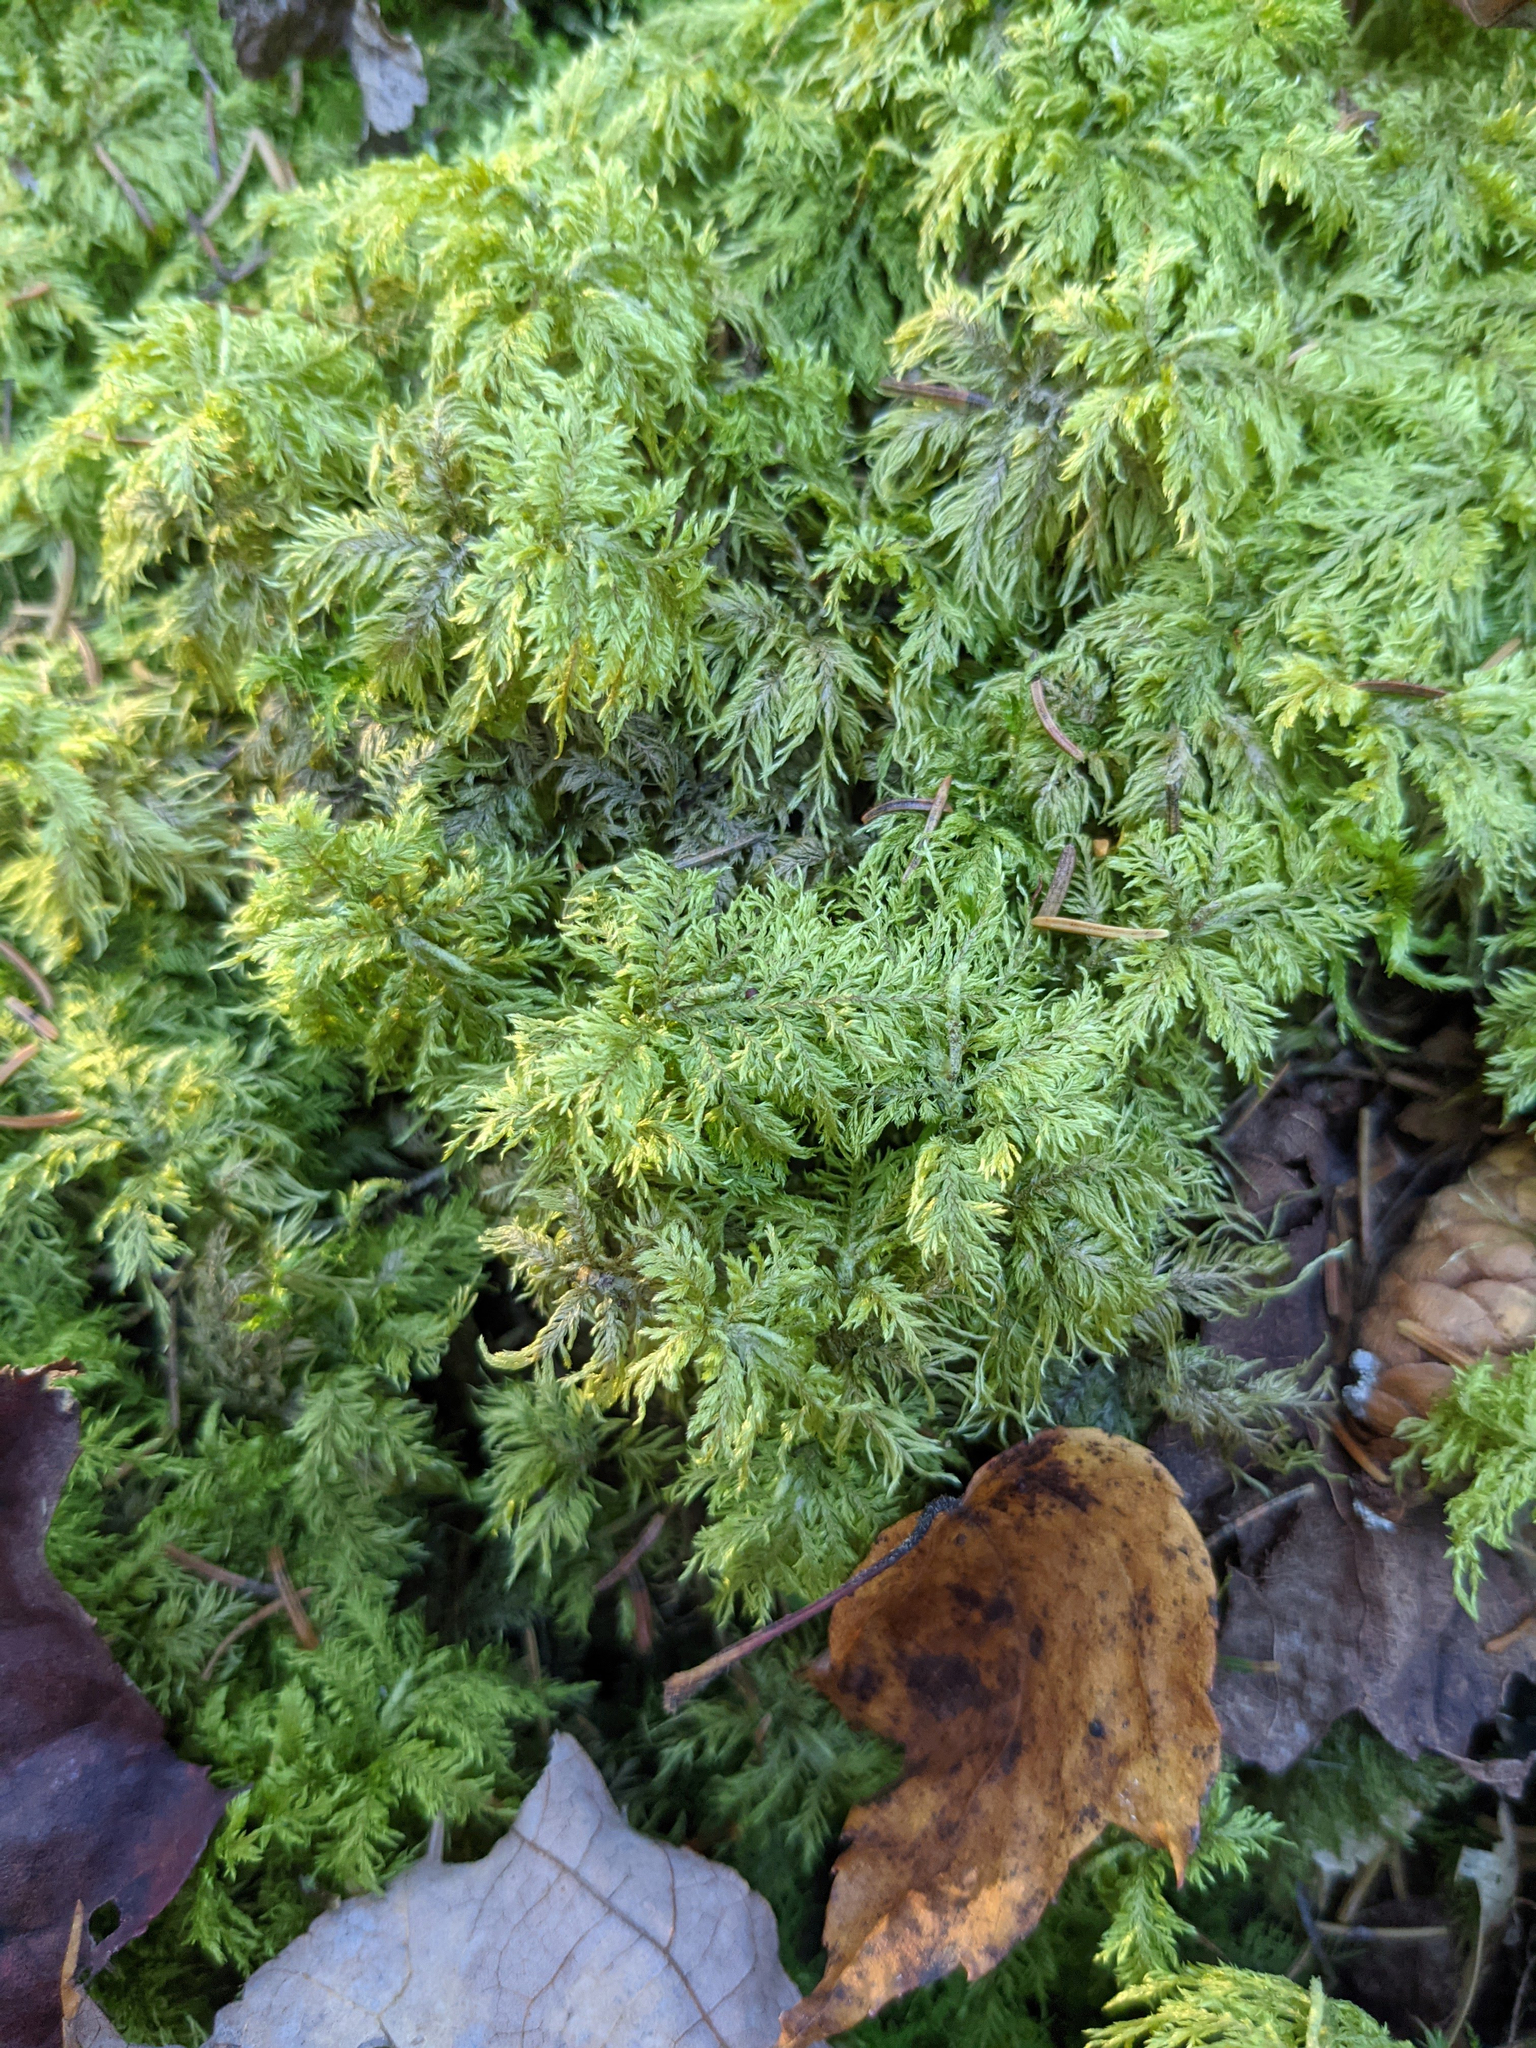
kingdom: Plantae
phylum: Bryophyta
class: Bryopsida
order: Hypnales
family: Hylocomiaceae
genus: Hylocomium
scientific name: Hylocomium splendens
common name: Stairstep moss
